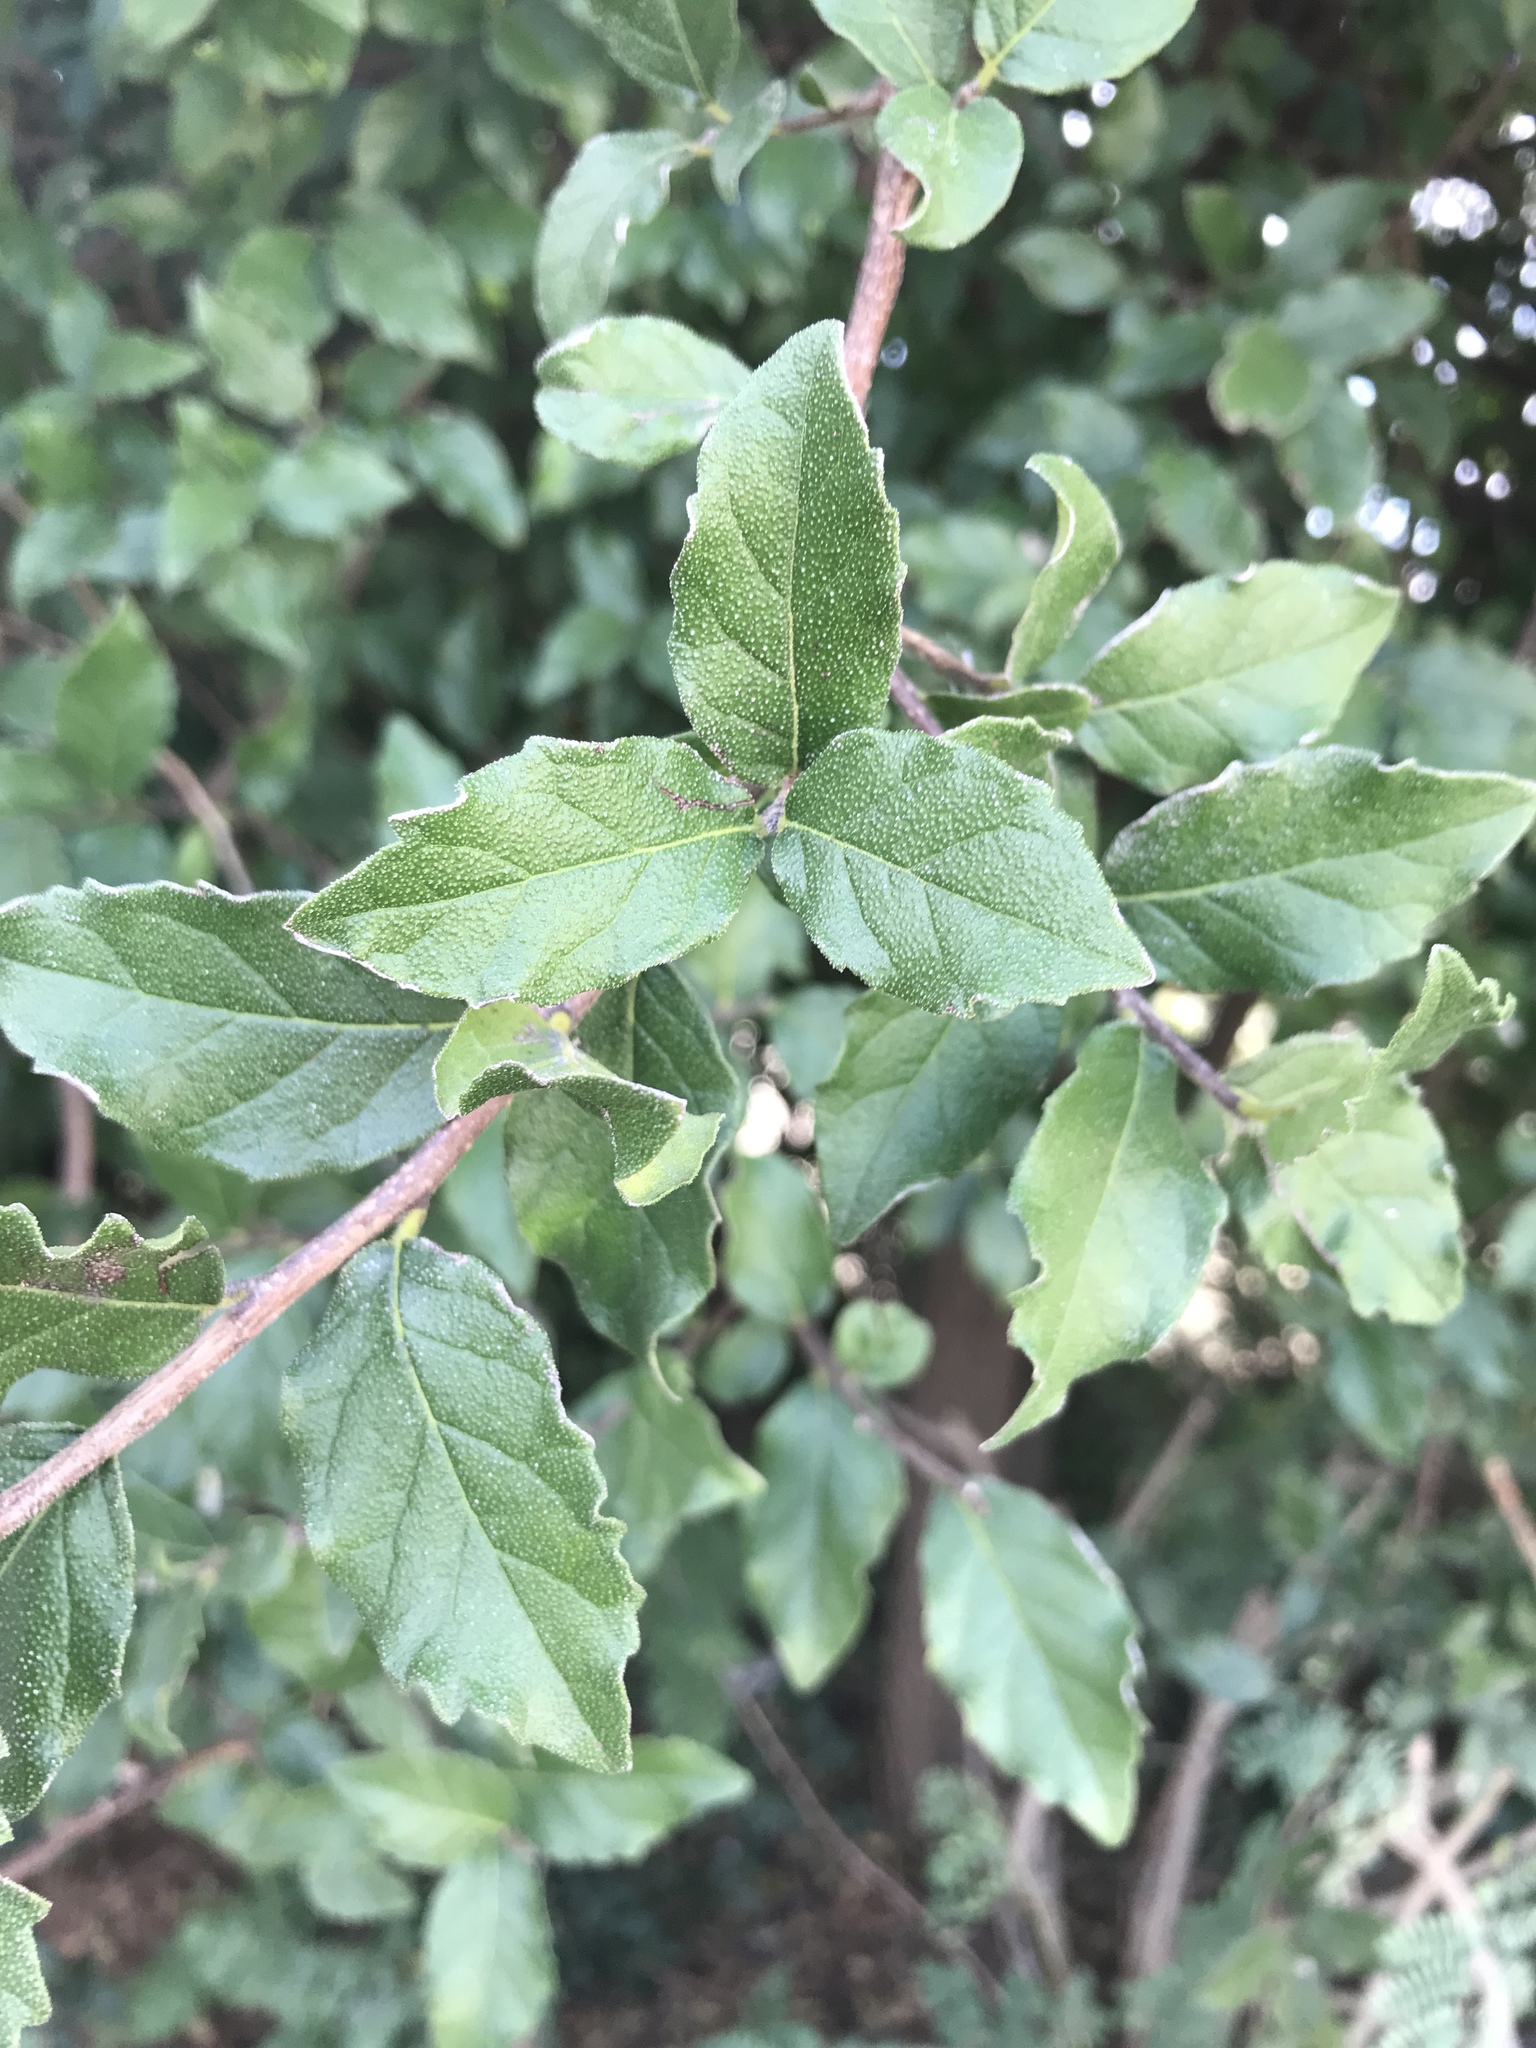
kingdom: Plantae
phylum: Tracheophyta
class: Magnoliopsida
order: Boraginales
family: Ehretiaceae
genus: Ehretia
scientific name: Ehretia anacua
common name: Sugarberry
